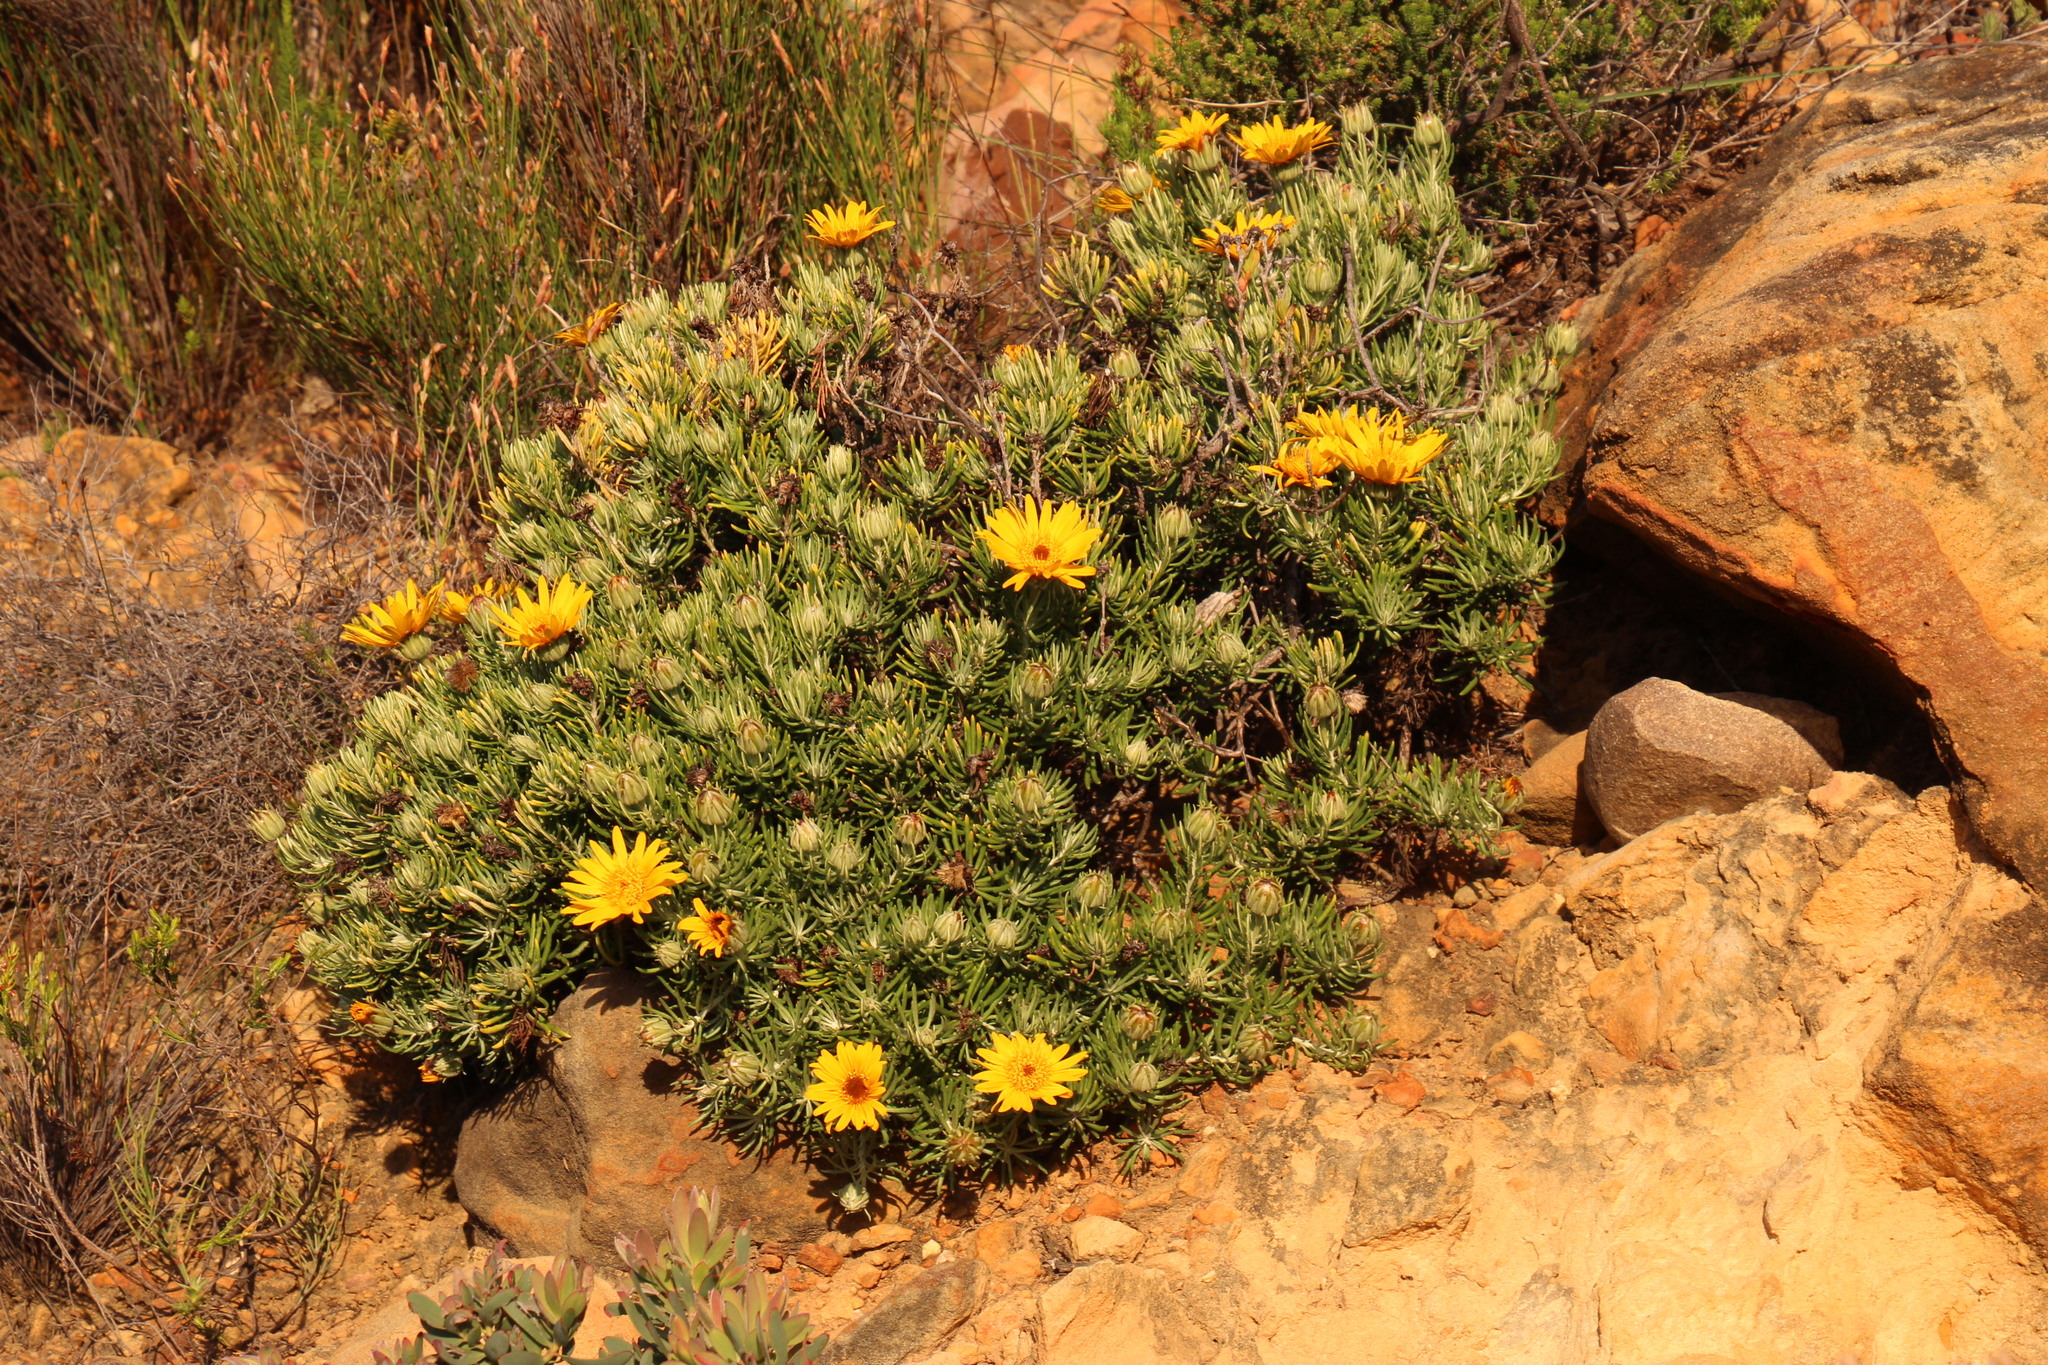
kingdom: Plantae
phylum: Tracheophyta
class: Magnoliopsida
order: Asterales
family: Asteraceae
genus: Heterolepis
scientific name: Heterolepis aliena
